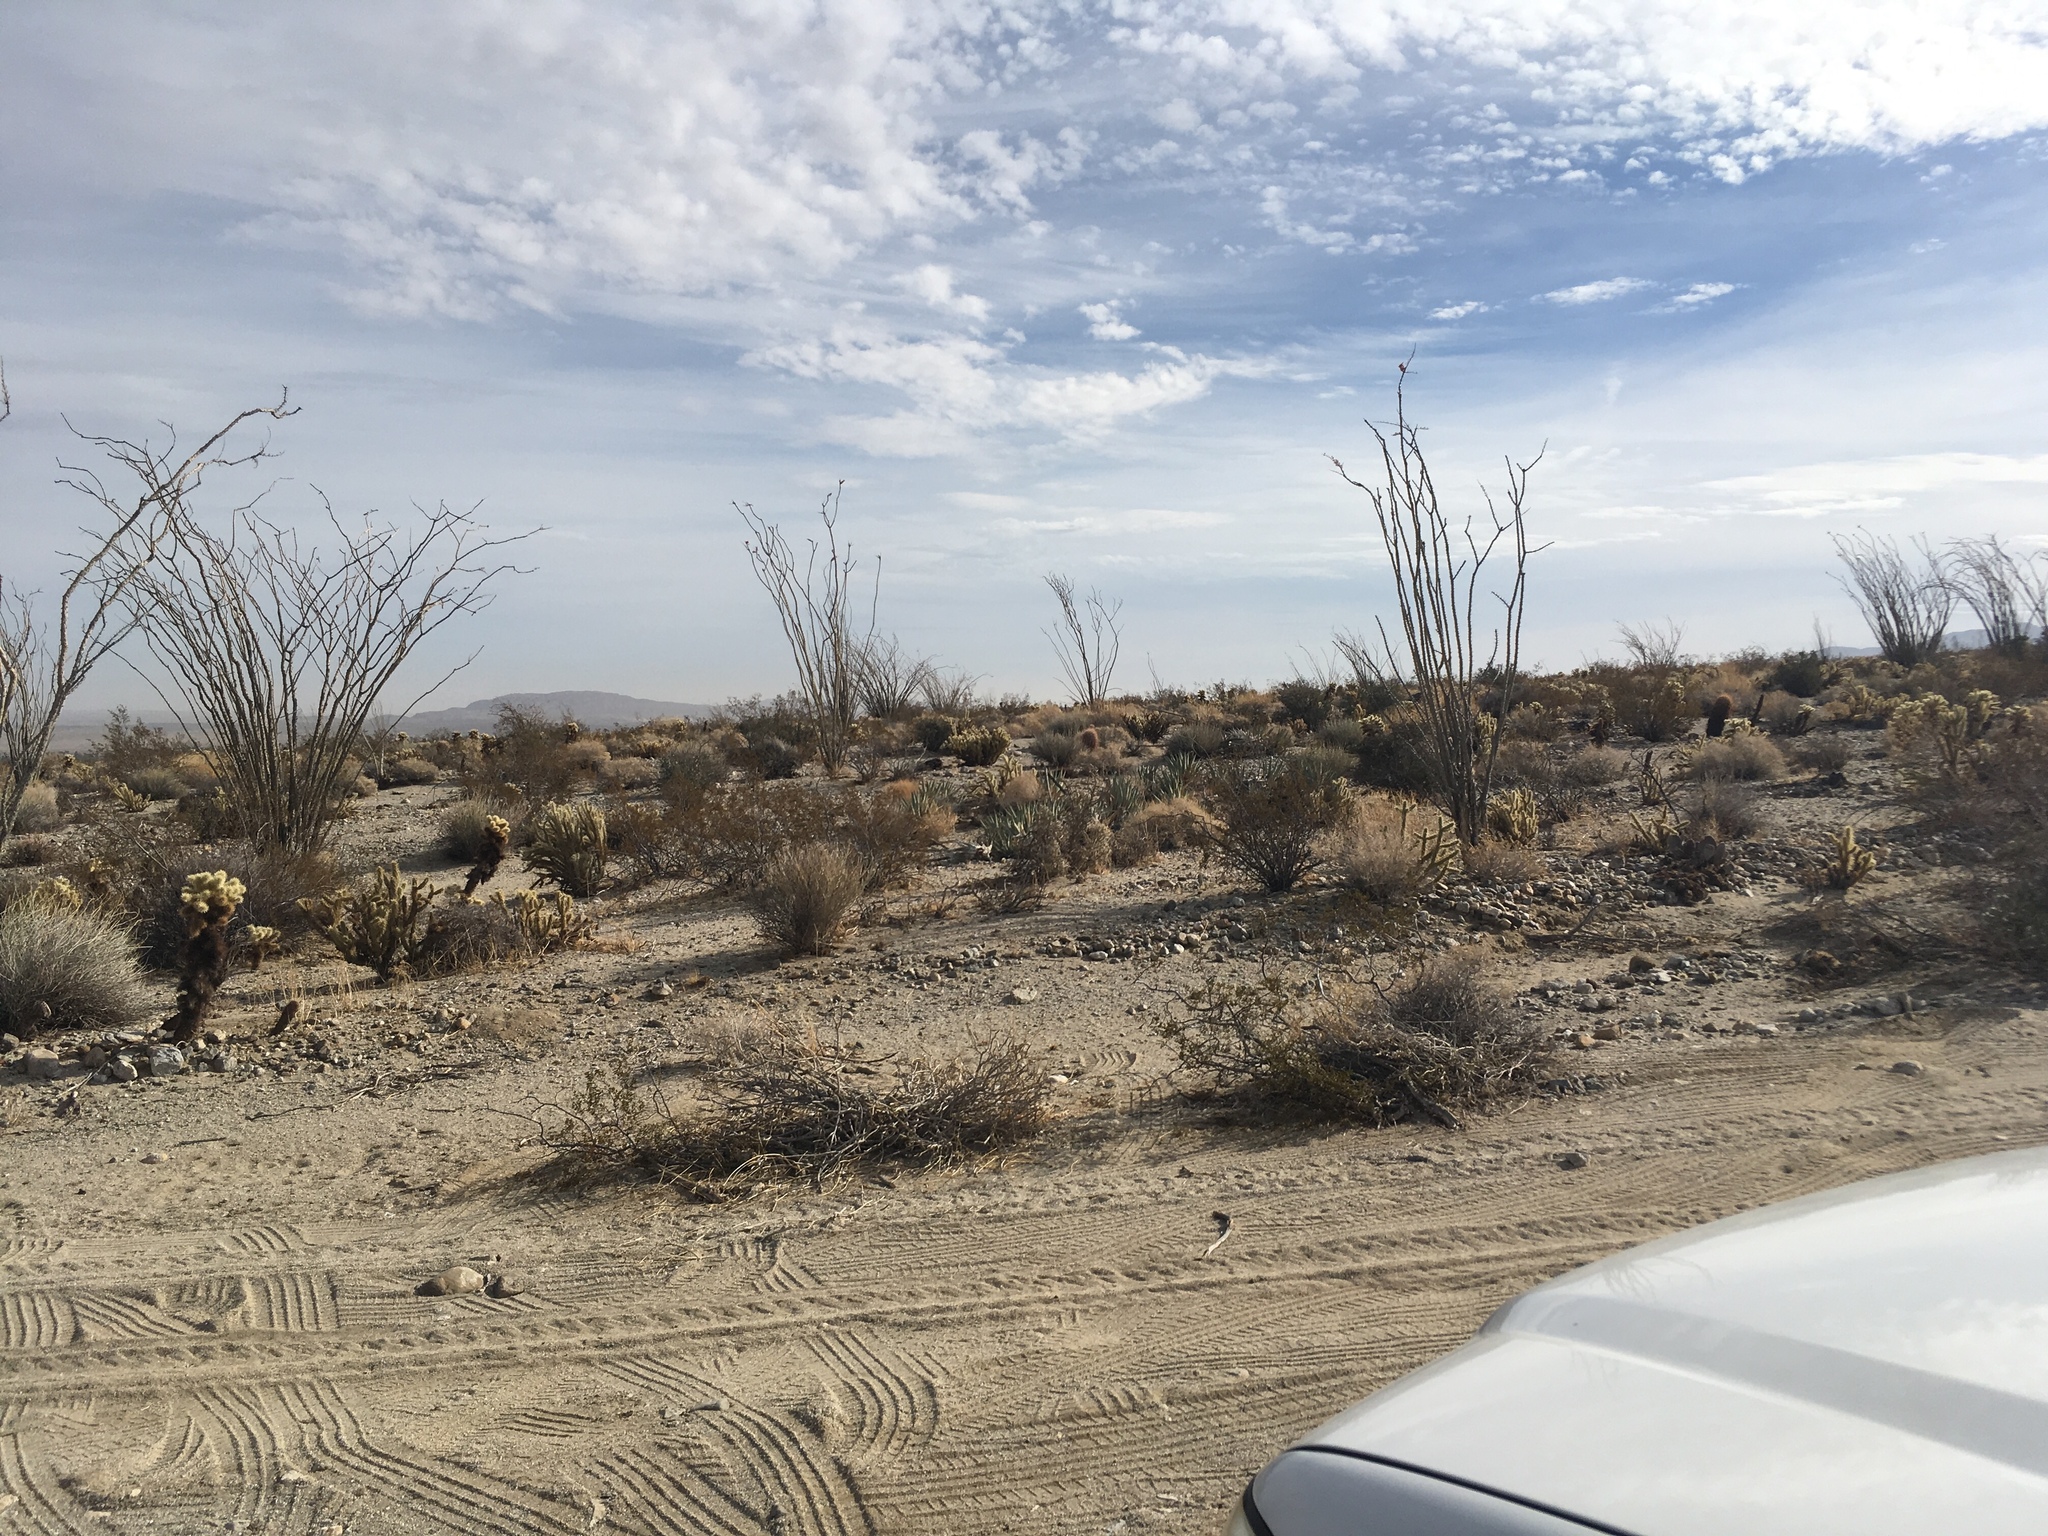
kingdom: Plantae
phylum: Tracheophyta
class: Magnoliopsida
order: Ericales
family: Fouquieriaceae
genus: Fouquieria
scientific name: Fouquieria splendens
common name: Vine-cactus
